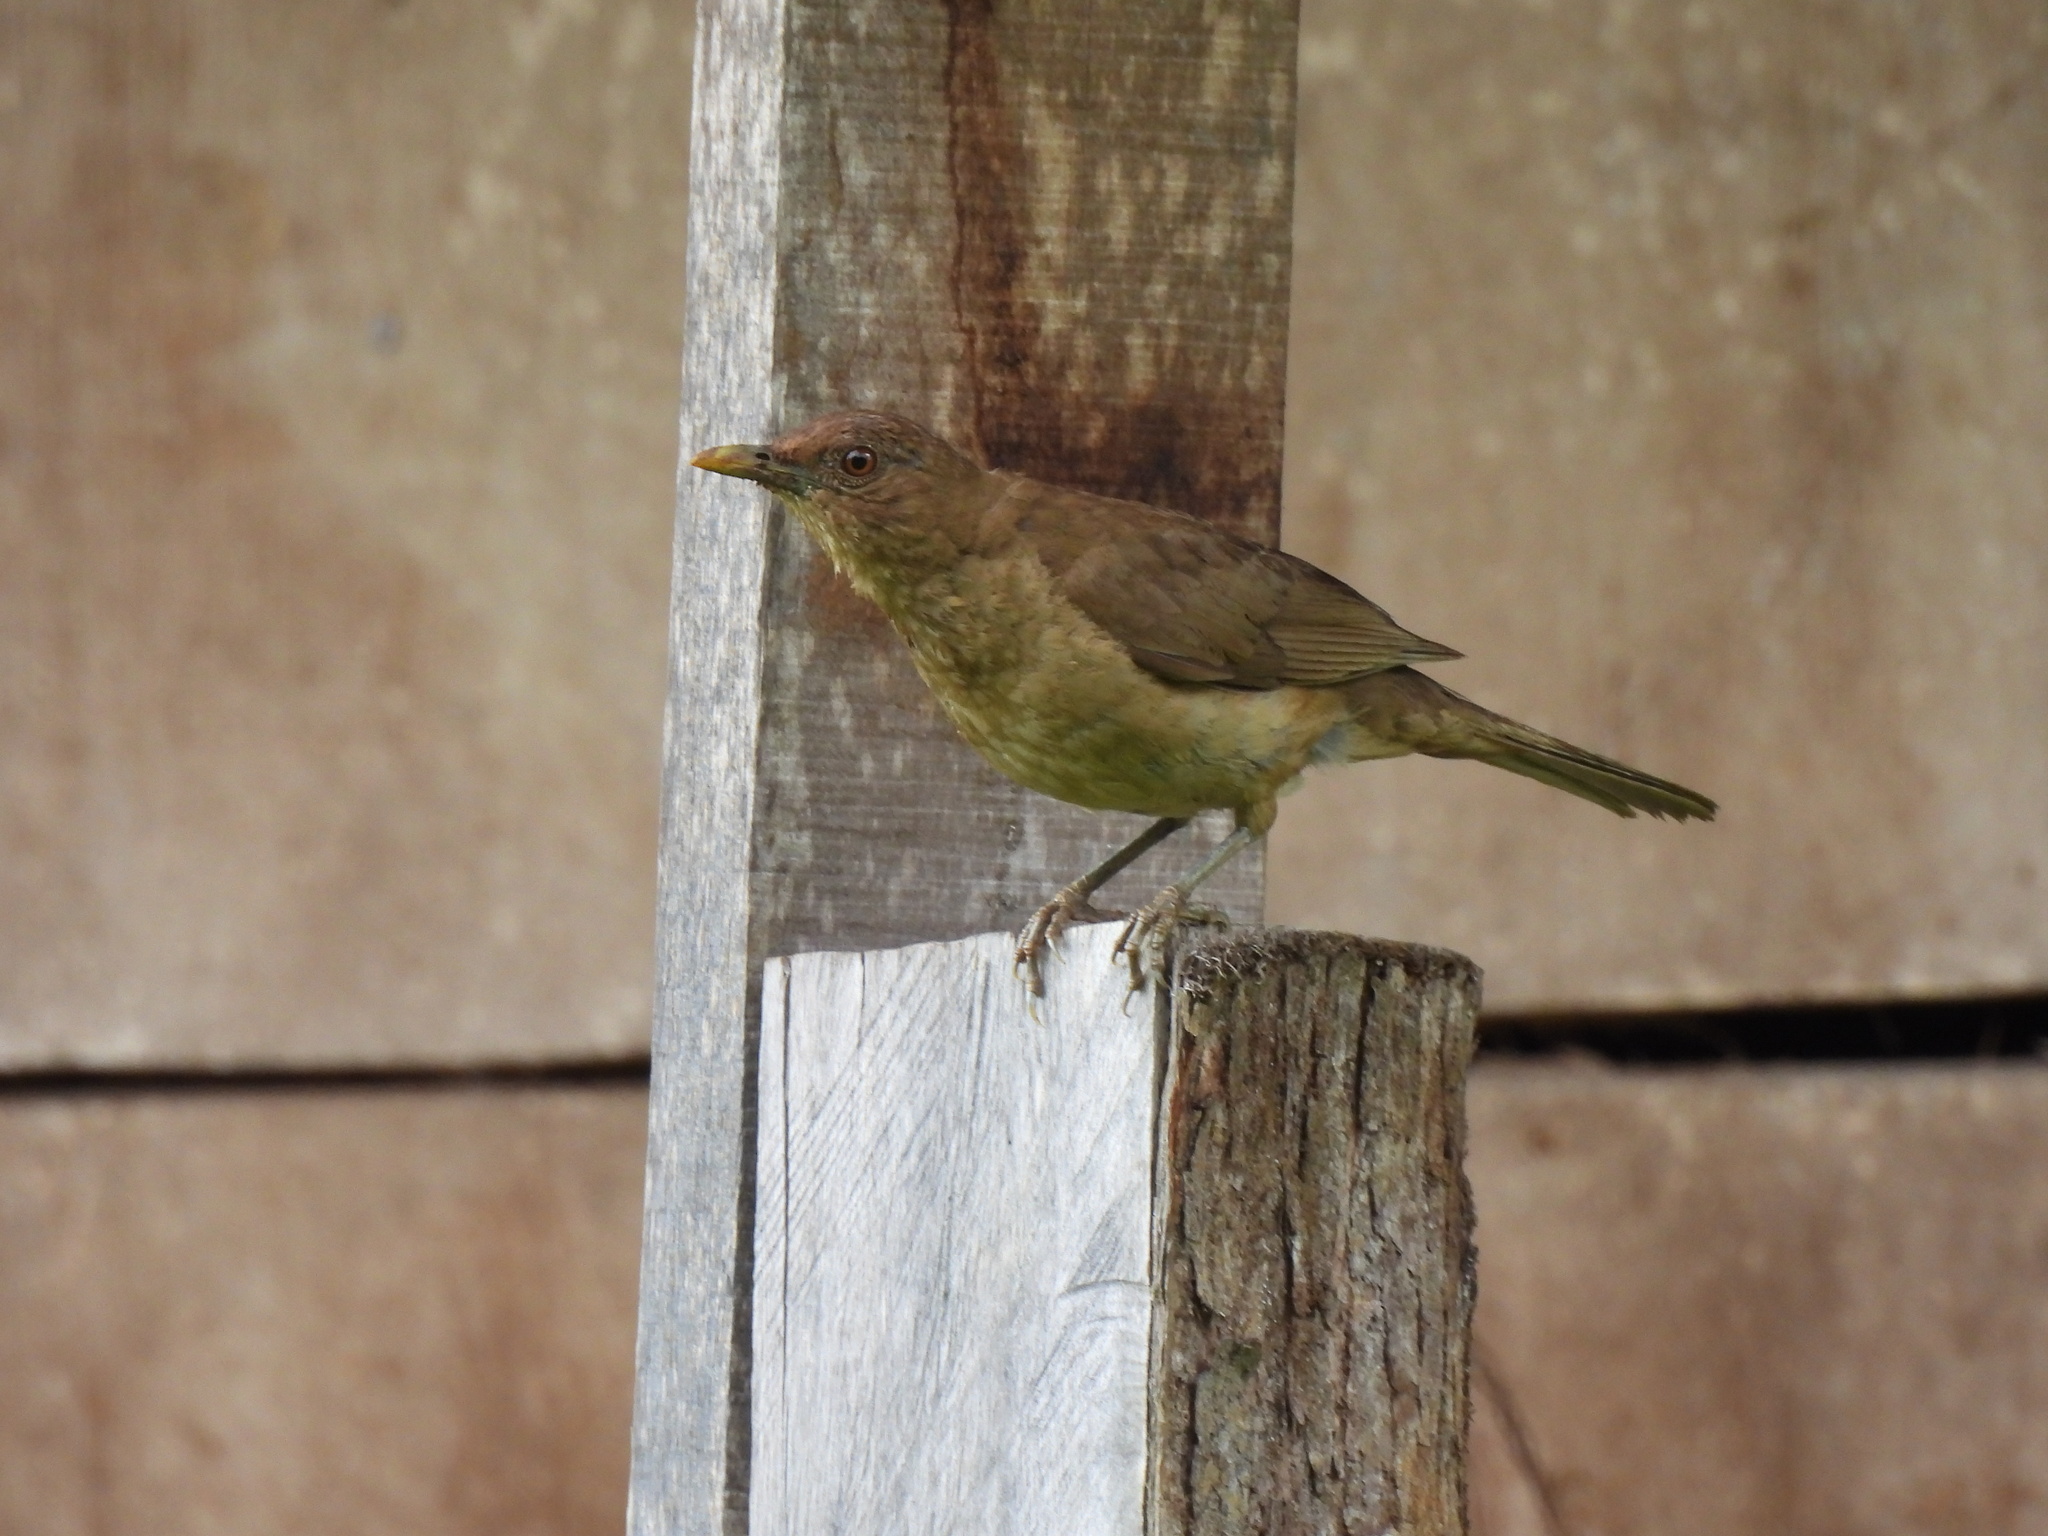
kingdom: Animalia
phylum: Chordata
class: Aves
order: Passeriformes
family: Turdidae
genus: Turdus
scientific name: Turdus grayi
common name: Clay-colored thrush
